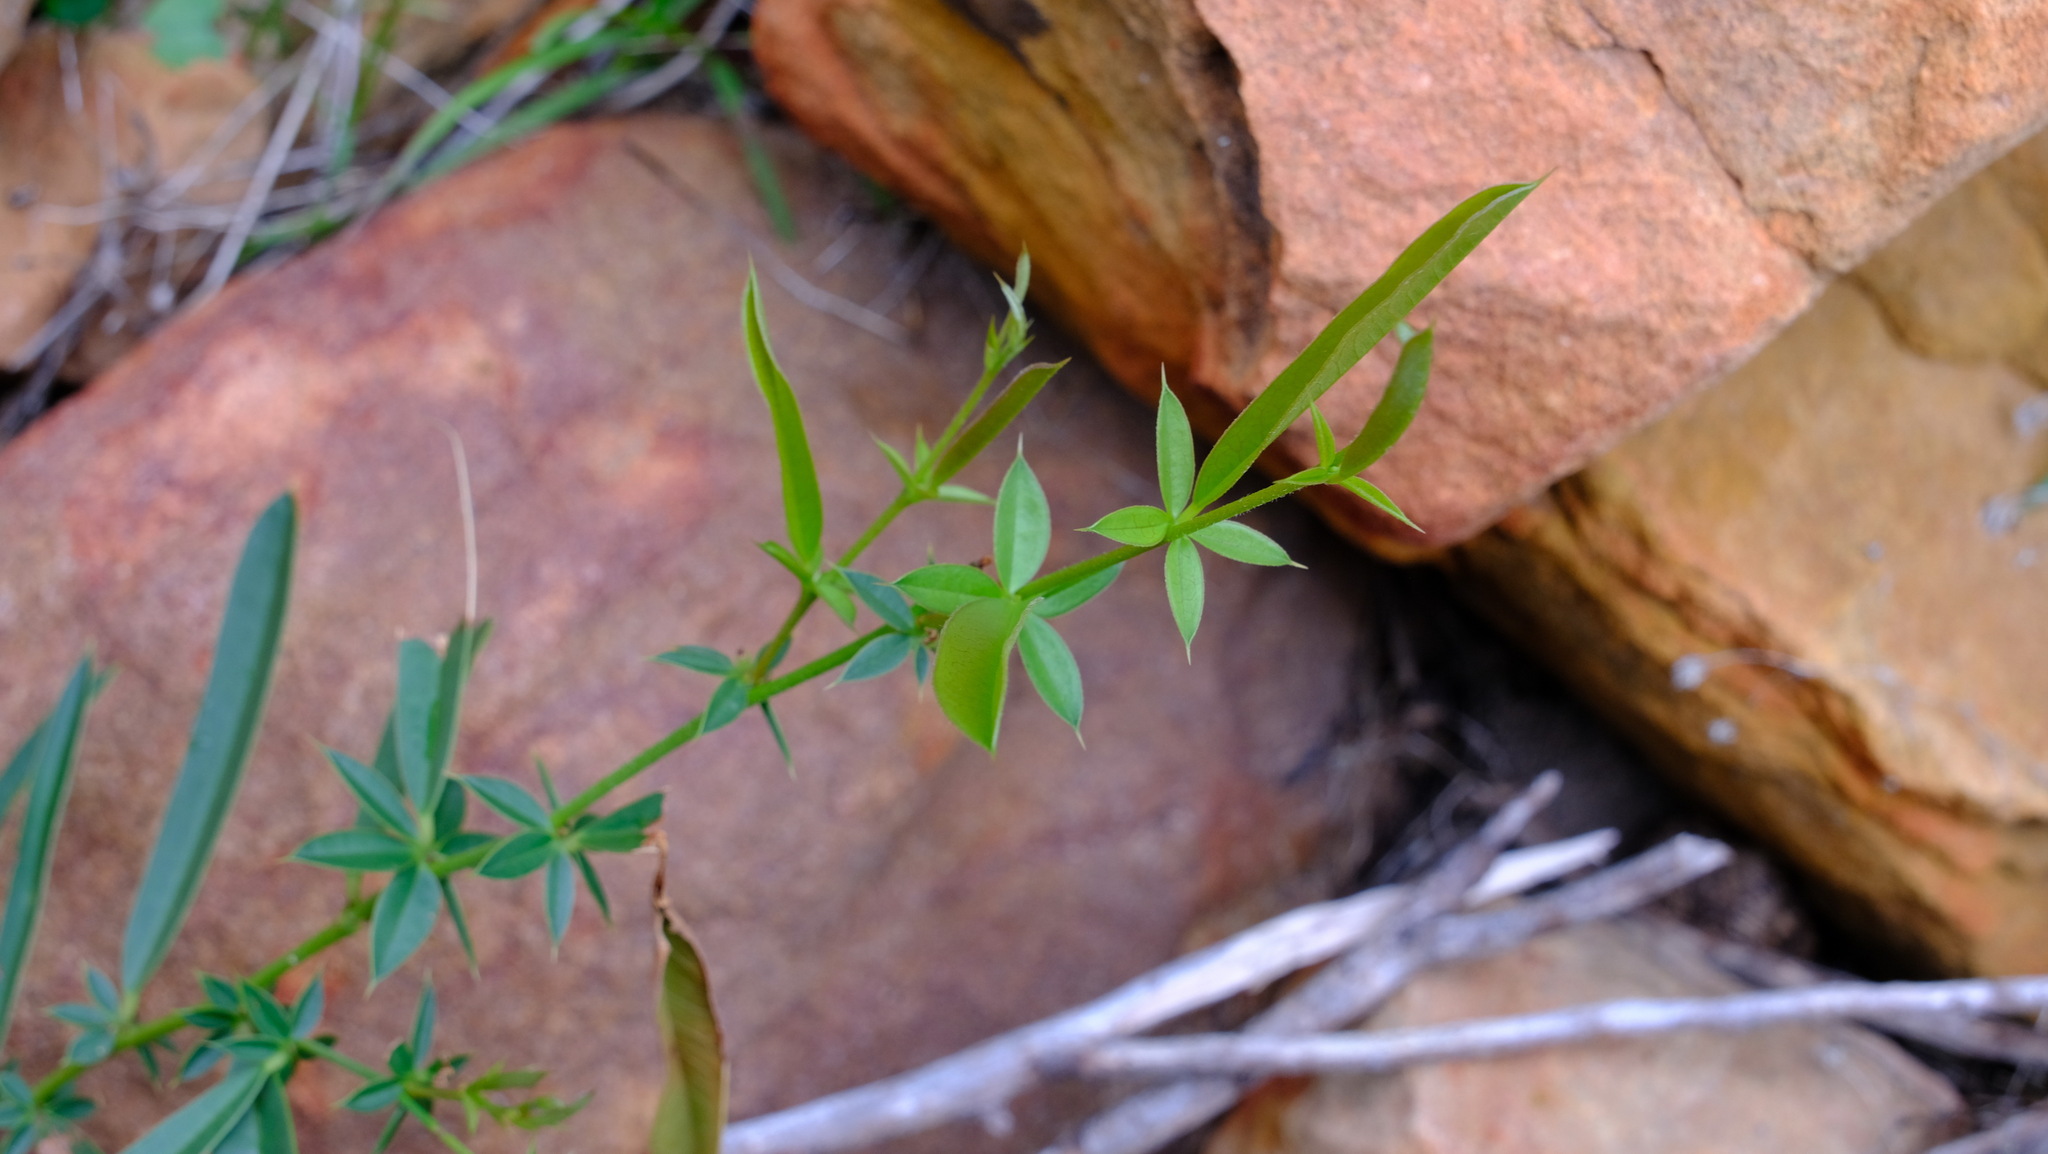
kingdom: Plantae
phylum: Tracheophyta
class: Magnoliopsida
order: Fabales
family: Fabaceae
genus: Labichea
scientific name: Labichea lanceolata
